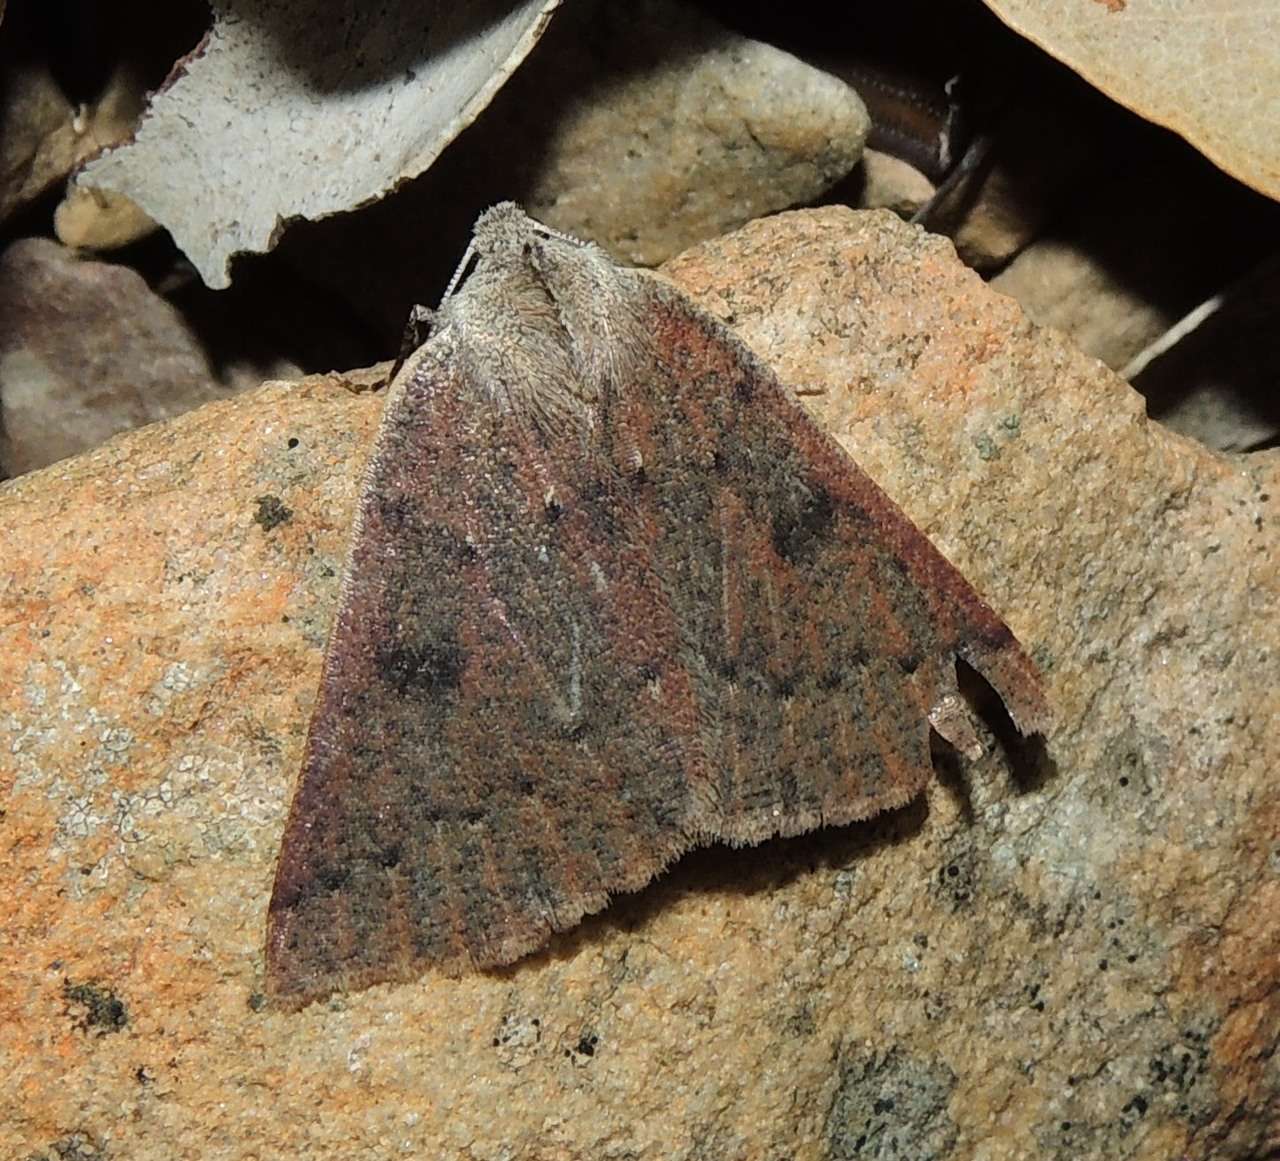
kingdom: Animalia
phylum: Arthropoda
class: Insecta
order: Lepidoptera
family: Geometridae
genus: Androchela
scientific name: Androchela milvaria
